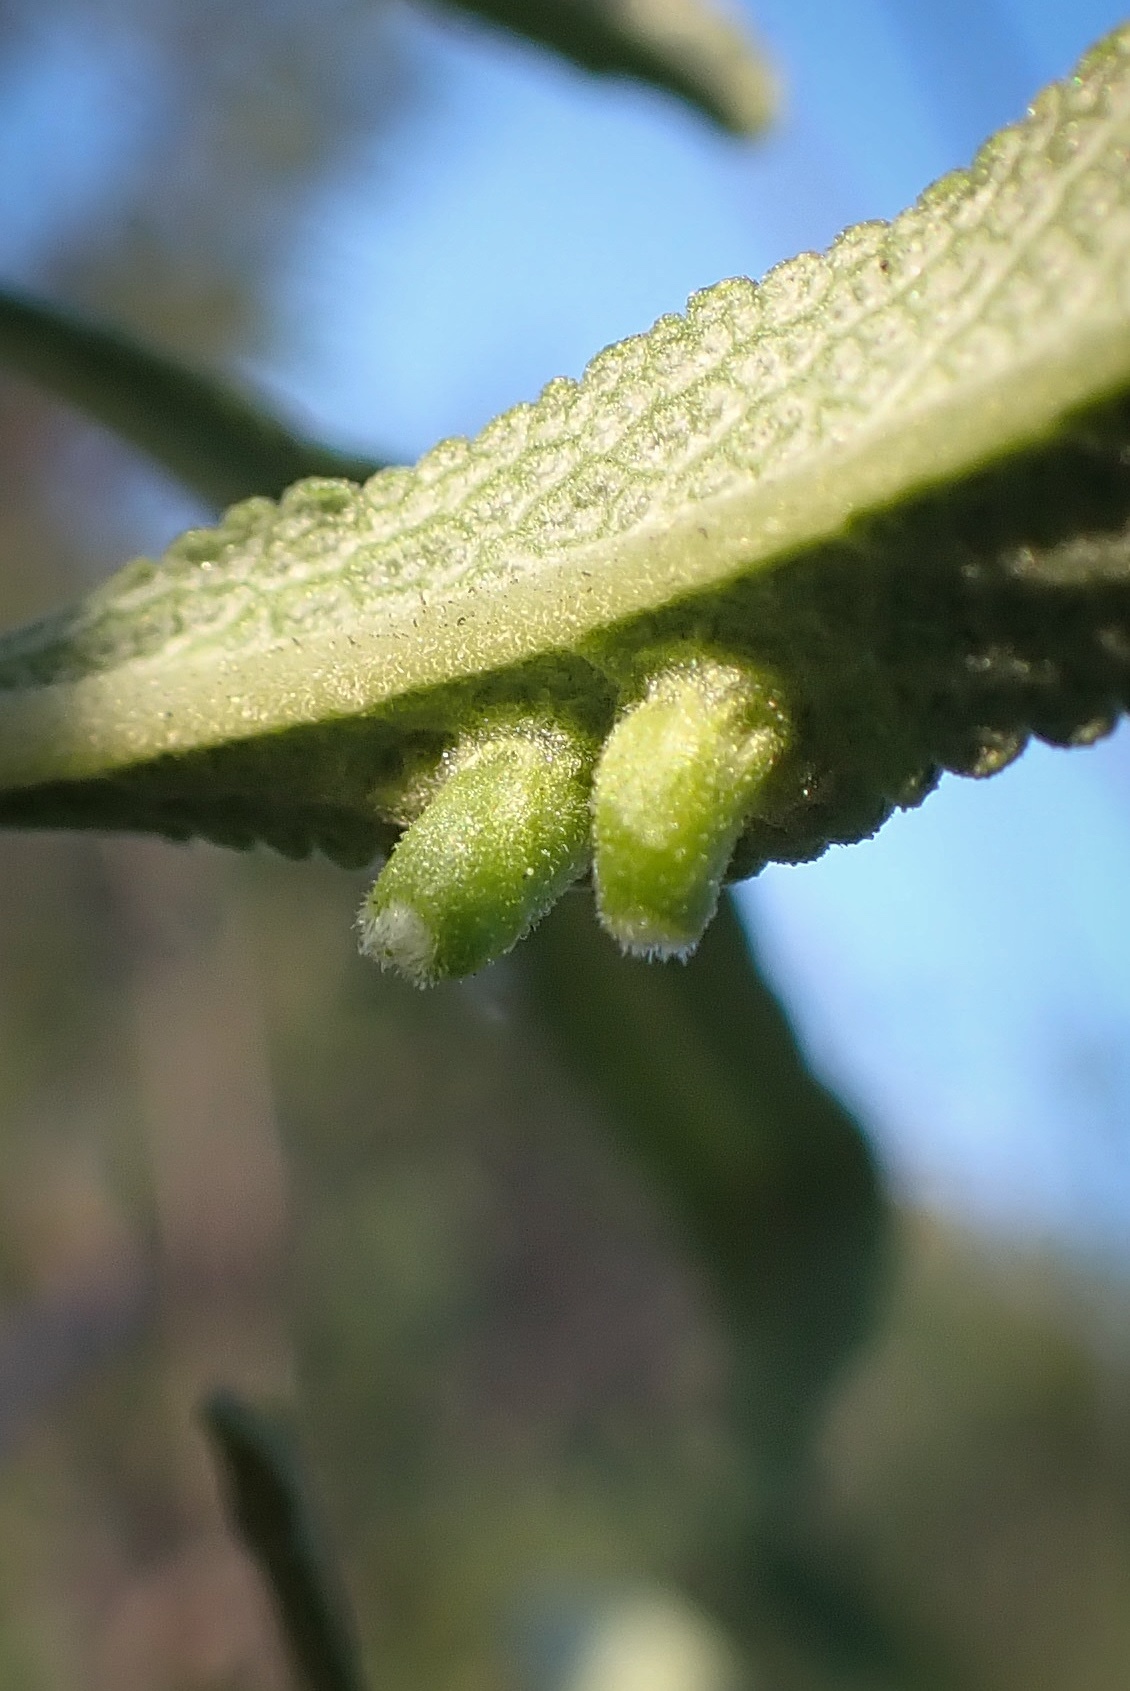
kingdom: Animalia
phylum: Arthropoda
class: Insecta
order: Diptera
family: Cecidomyiidae
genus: Rhopalomyia
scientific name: Rhopalomyia audibertiae
